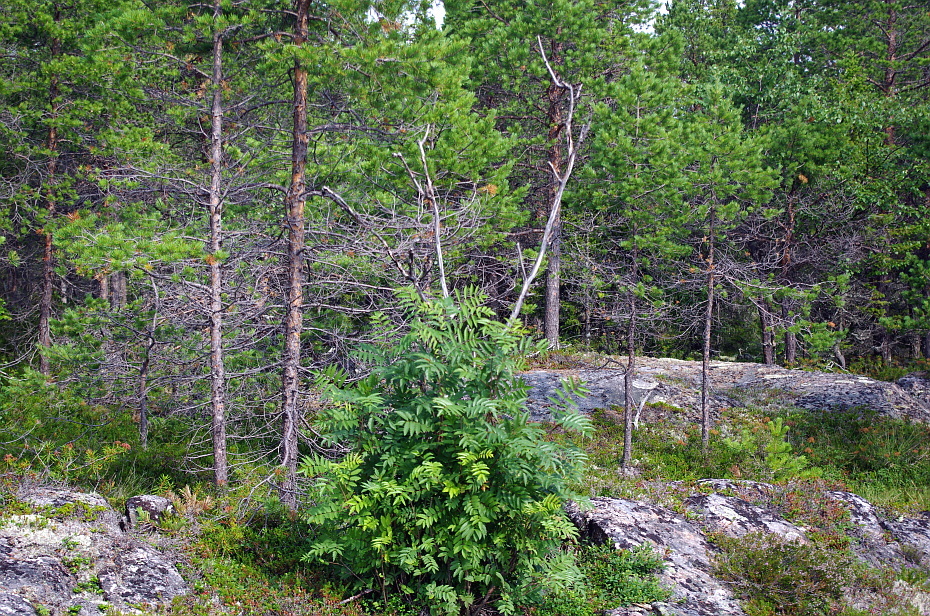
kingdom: Plantae
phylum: Tracheophyta
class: Magnoliopsida
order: Rosales
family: Rosaceae
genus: Sorbus
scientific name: Sorbus aucuparia
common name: Rowan
